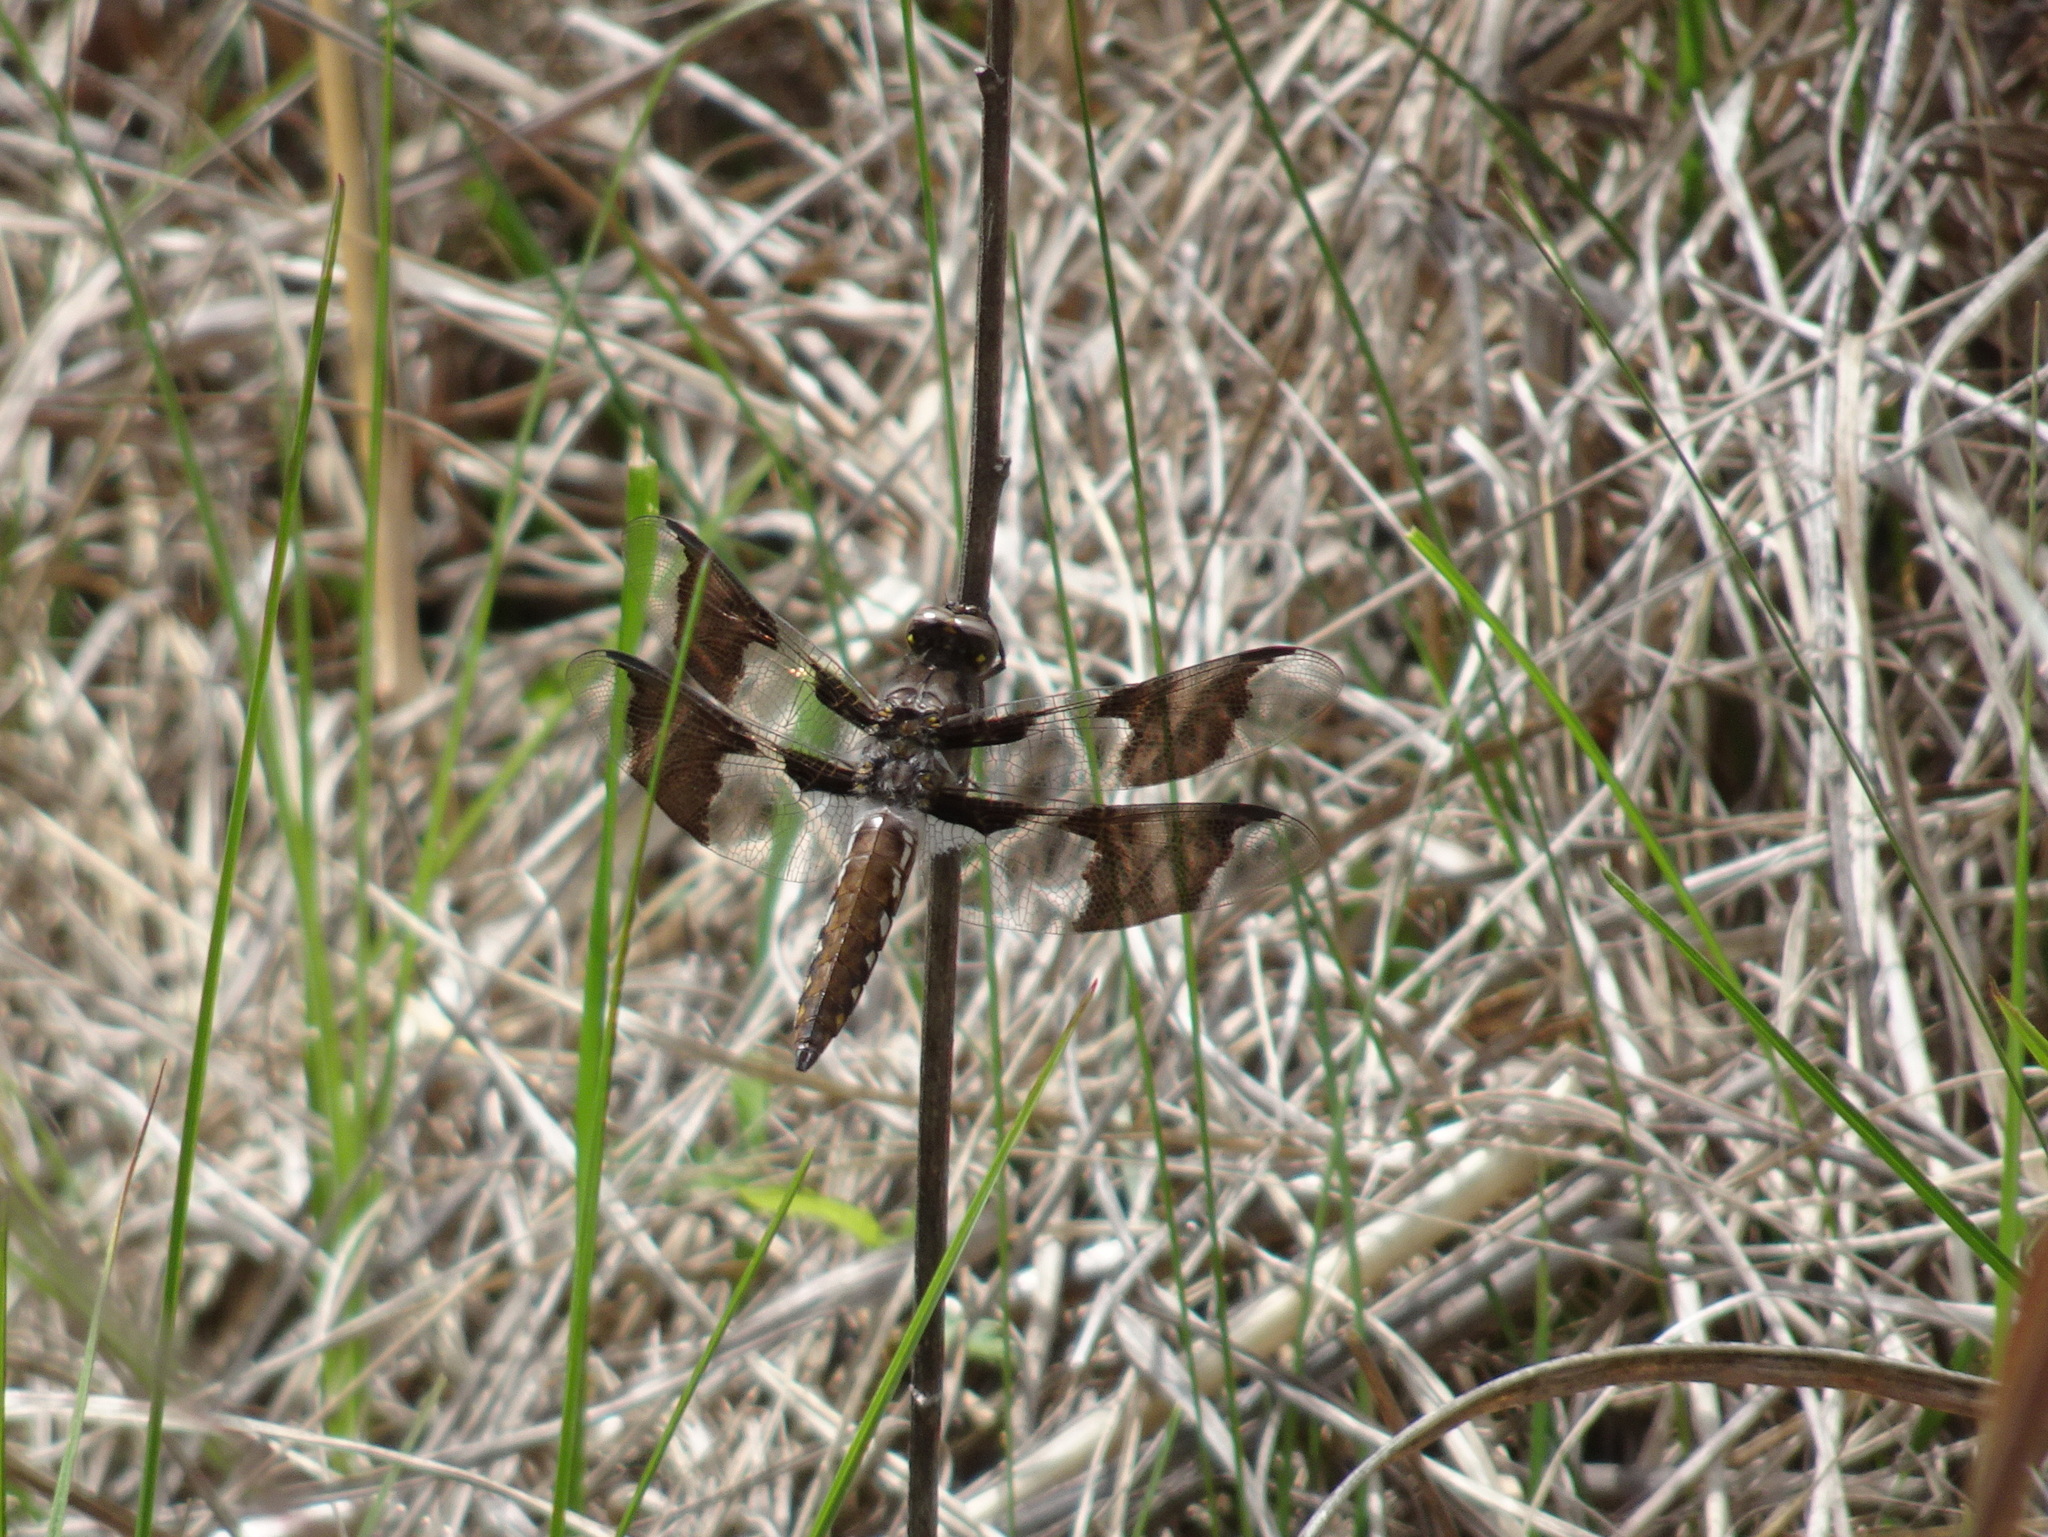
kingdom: Animalia
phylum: Arthropoda
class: Insecta
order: Odonata
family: Libellulidae
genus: Plathemis
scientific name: Plathemis lydia
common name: Common whitetail
